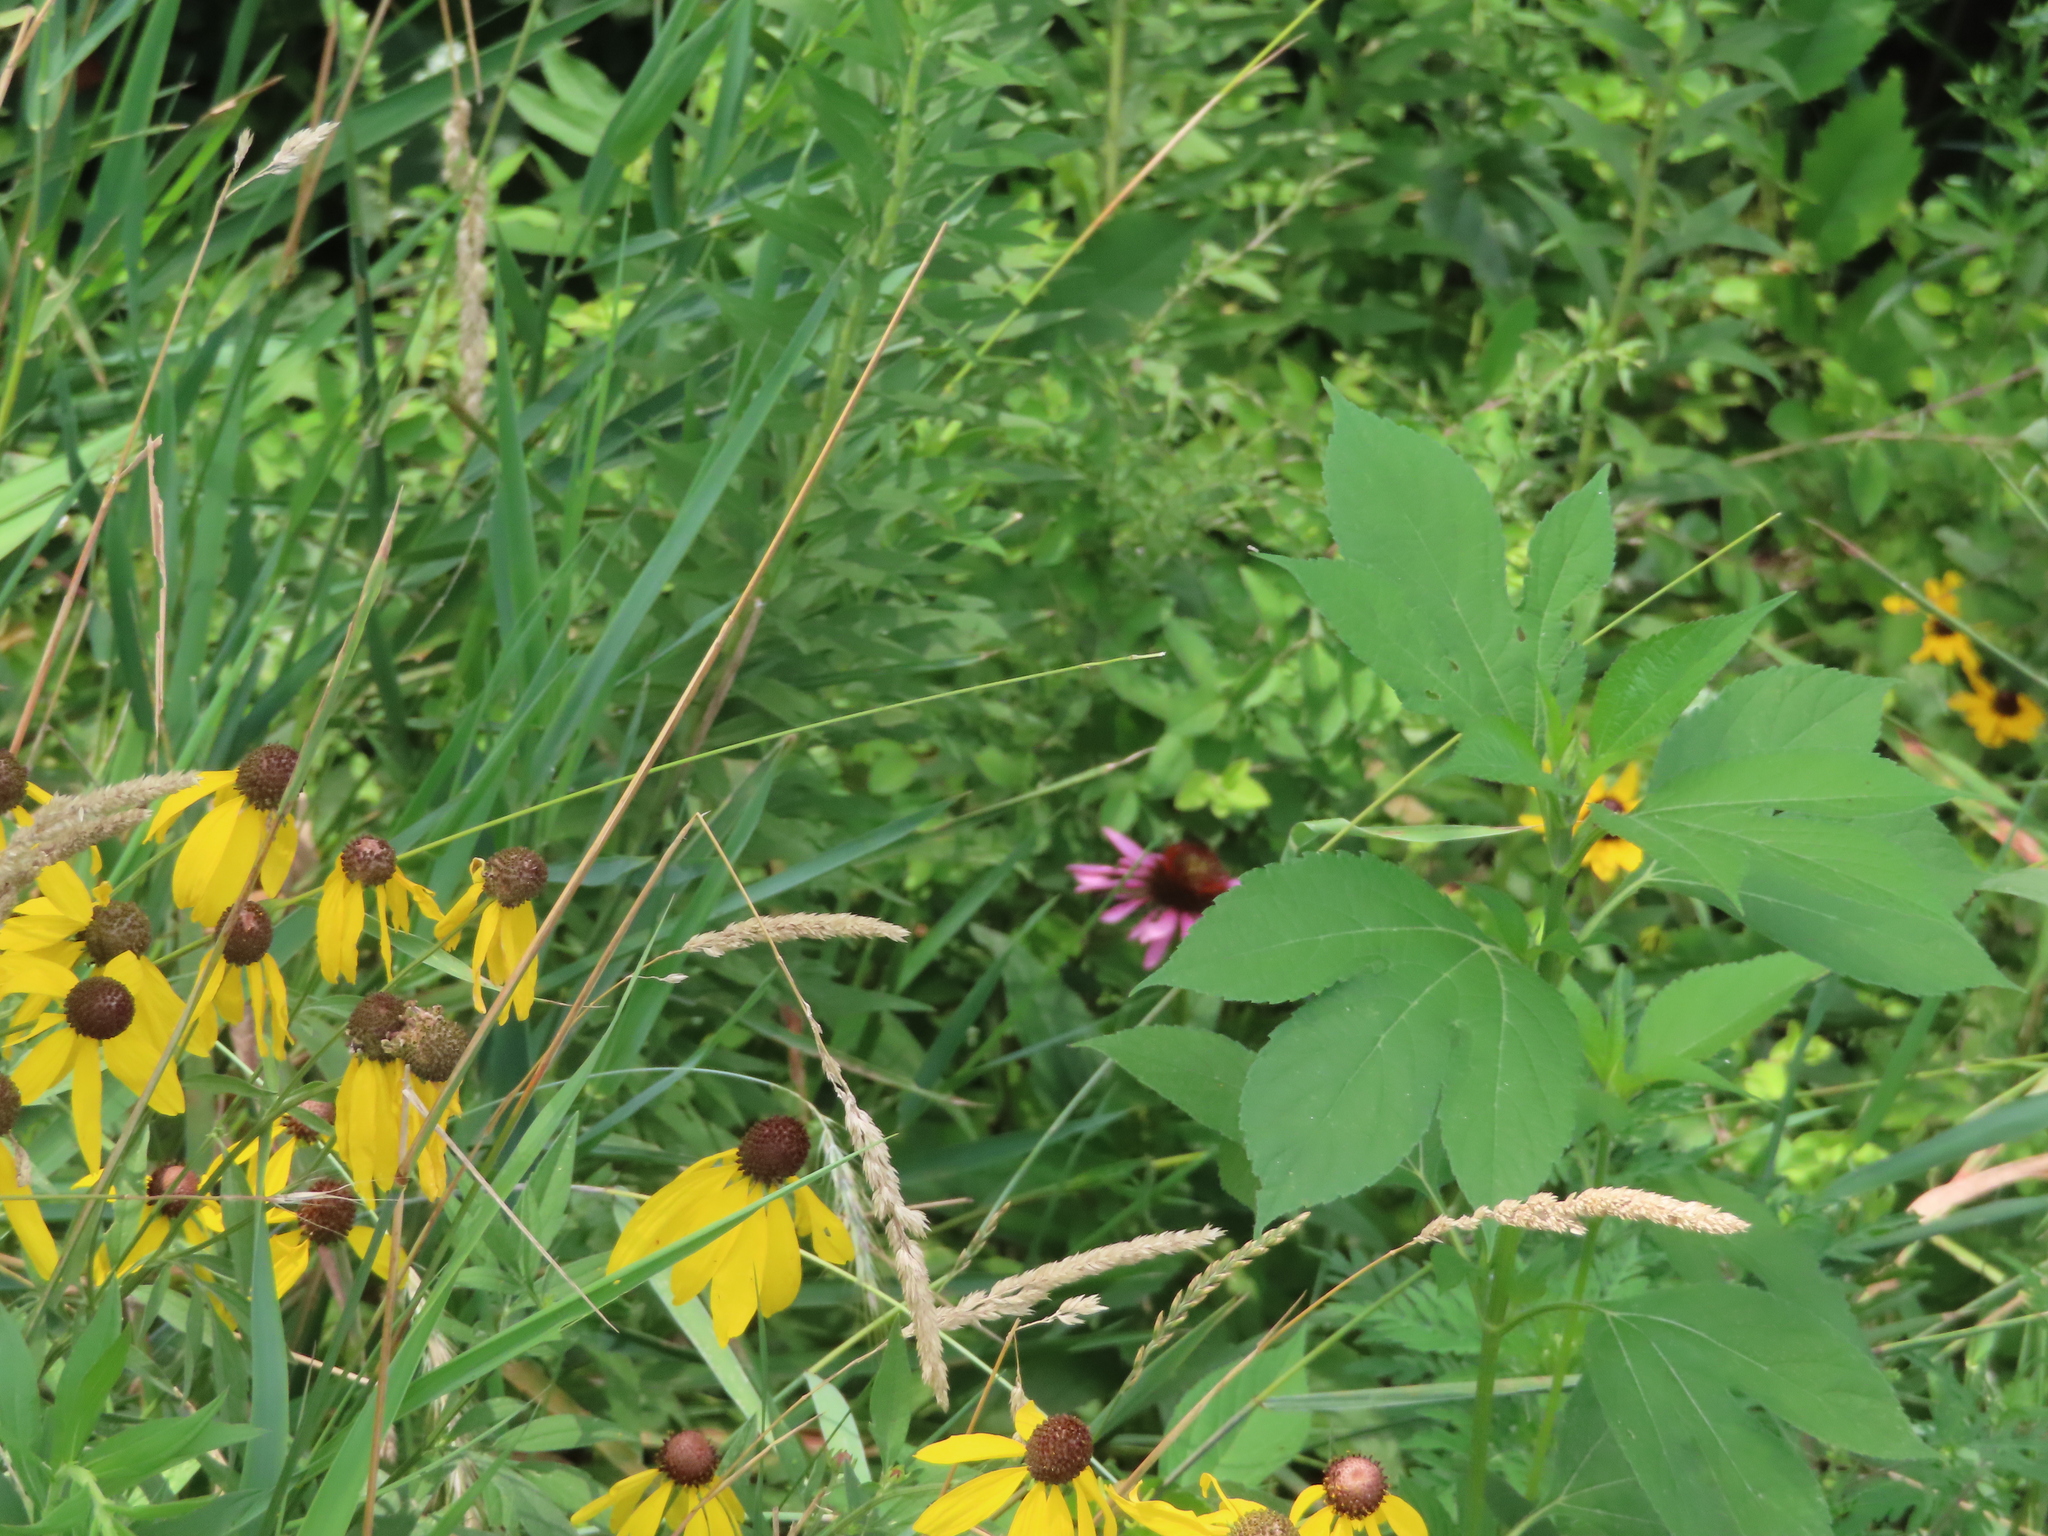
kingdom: Plantae
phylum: Tracheophyta
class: Magnoliopsida
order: Asterales
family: Asteraceae
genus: Ambrosia
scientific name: Ambrosia trifida
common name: Giant ragweed
